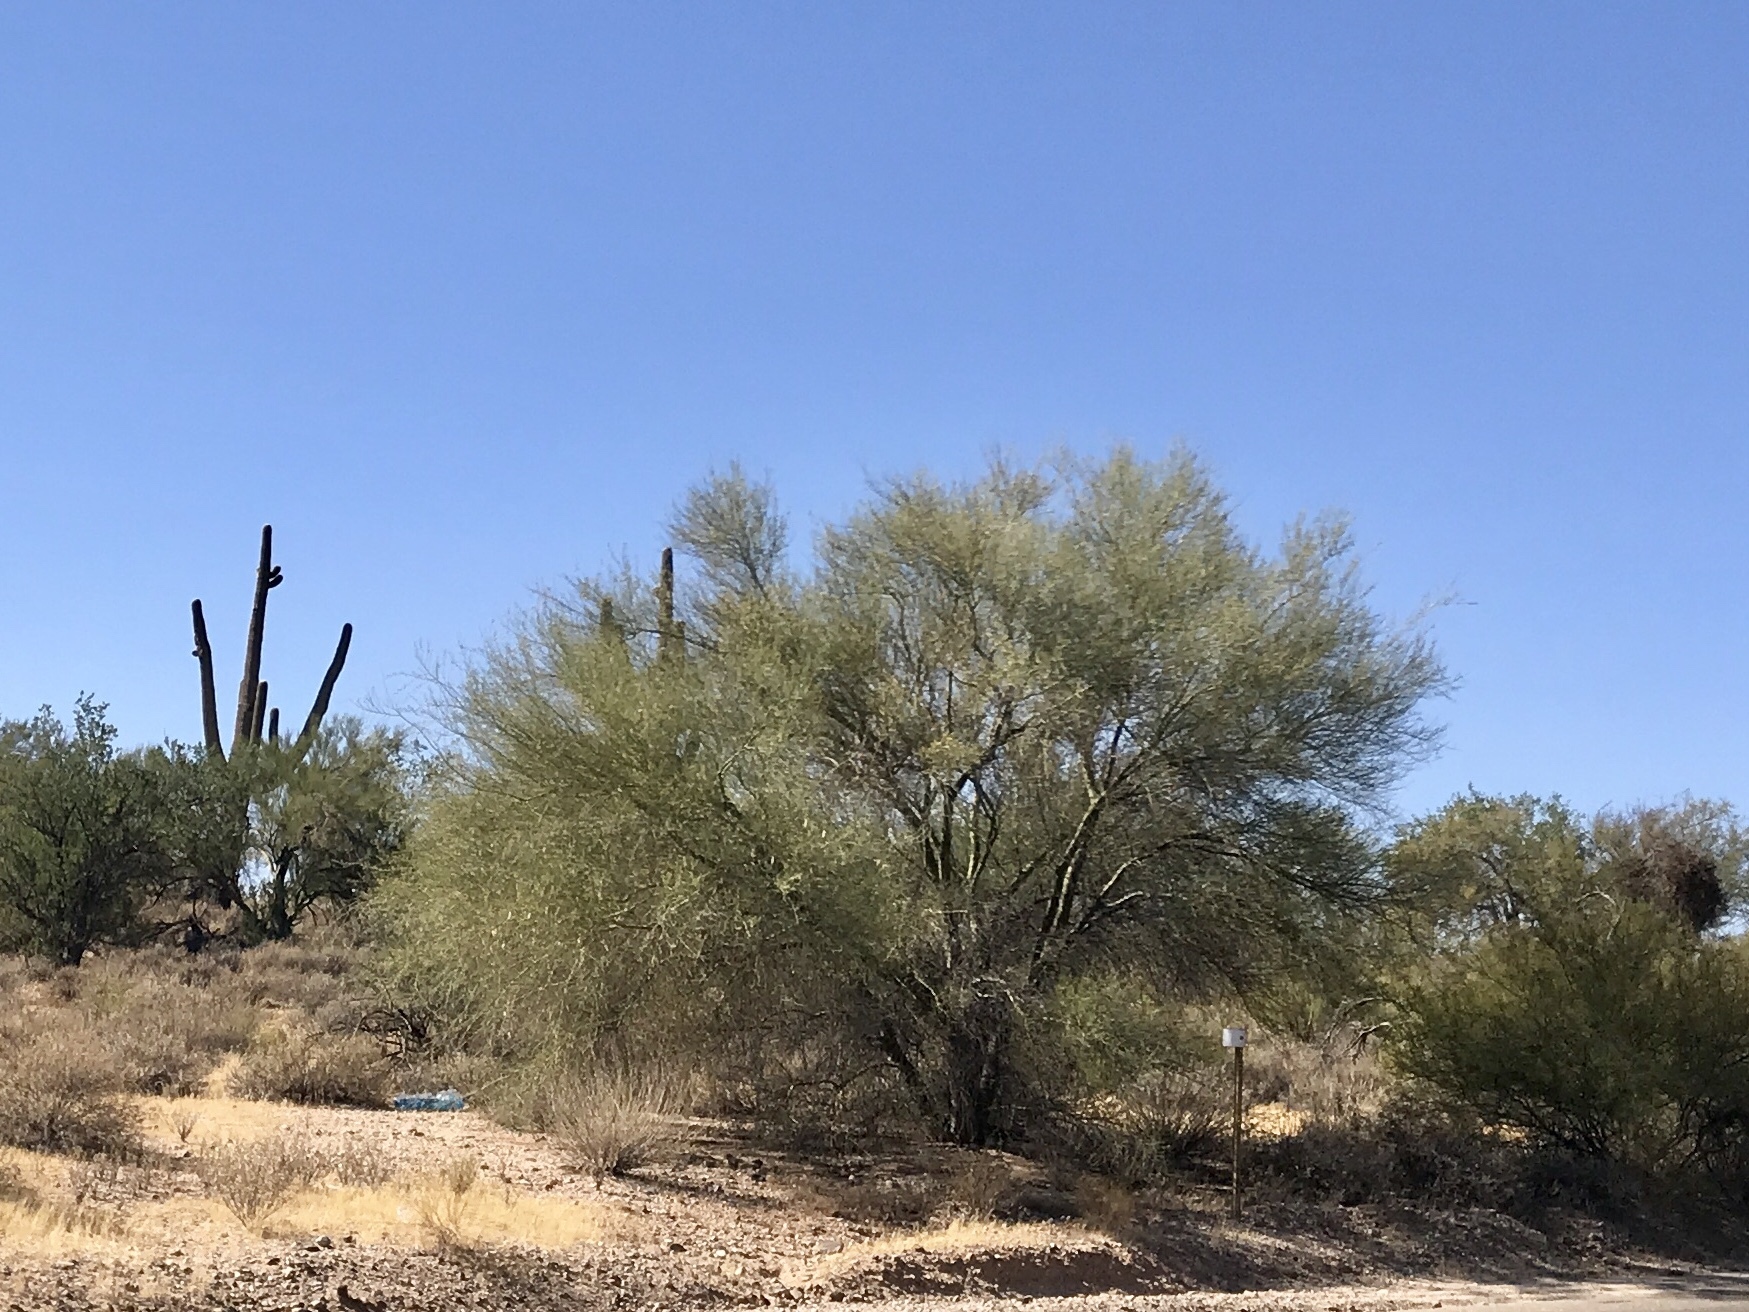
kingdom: Plantae
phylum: Tracheophyta
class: Magnoliopsida
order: Fabales
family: Fabaceae
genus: Parkinsonia
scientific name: Parkinsonia florida
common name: Blue paloverde
